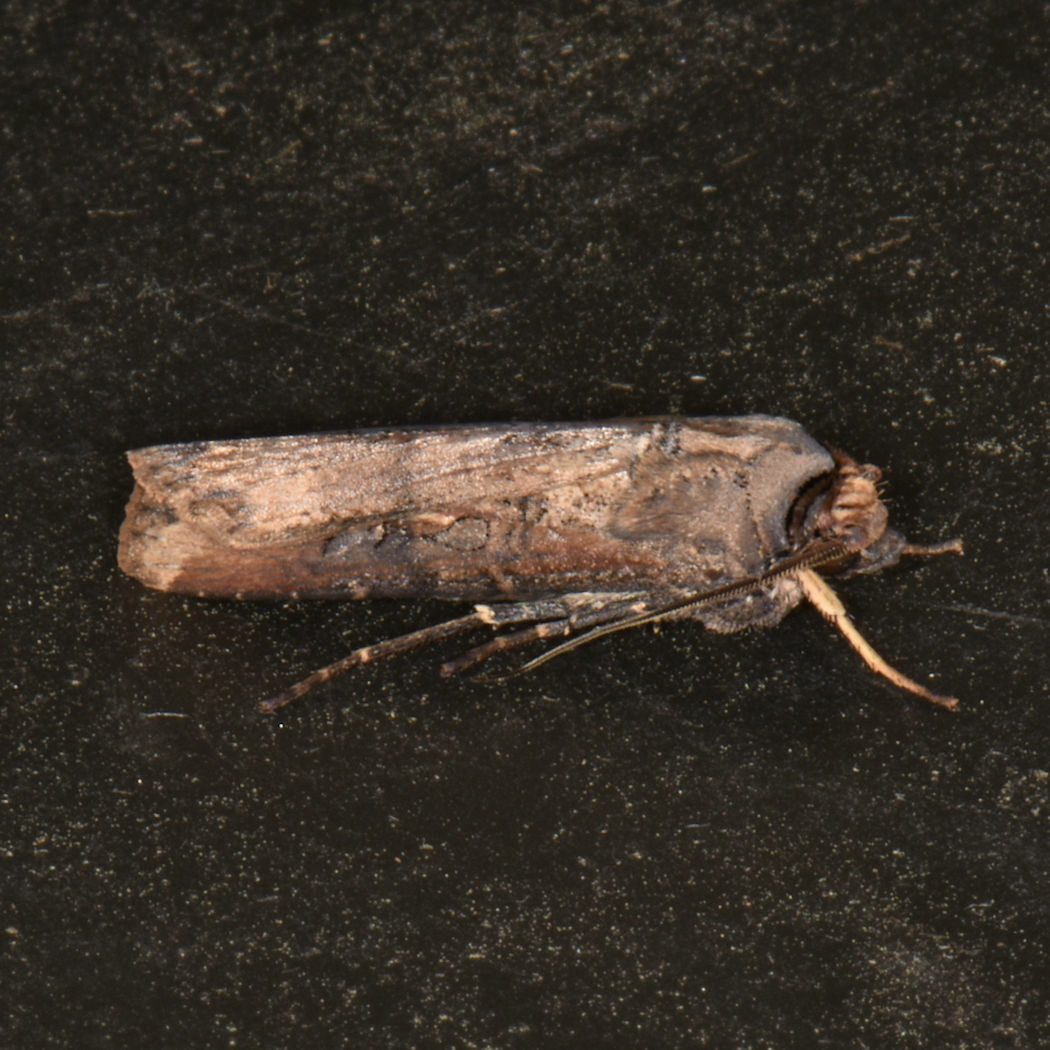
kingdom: Animalia
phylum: Arthropoda
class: Insecta
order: Lepidoptera
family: Noctuidae
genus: Agrotis
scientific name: Agrotis ipsilon
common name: Dark sword-grass
